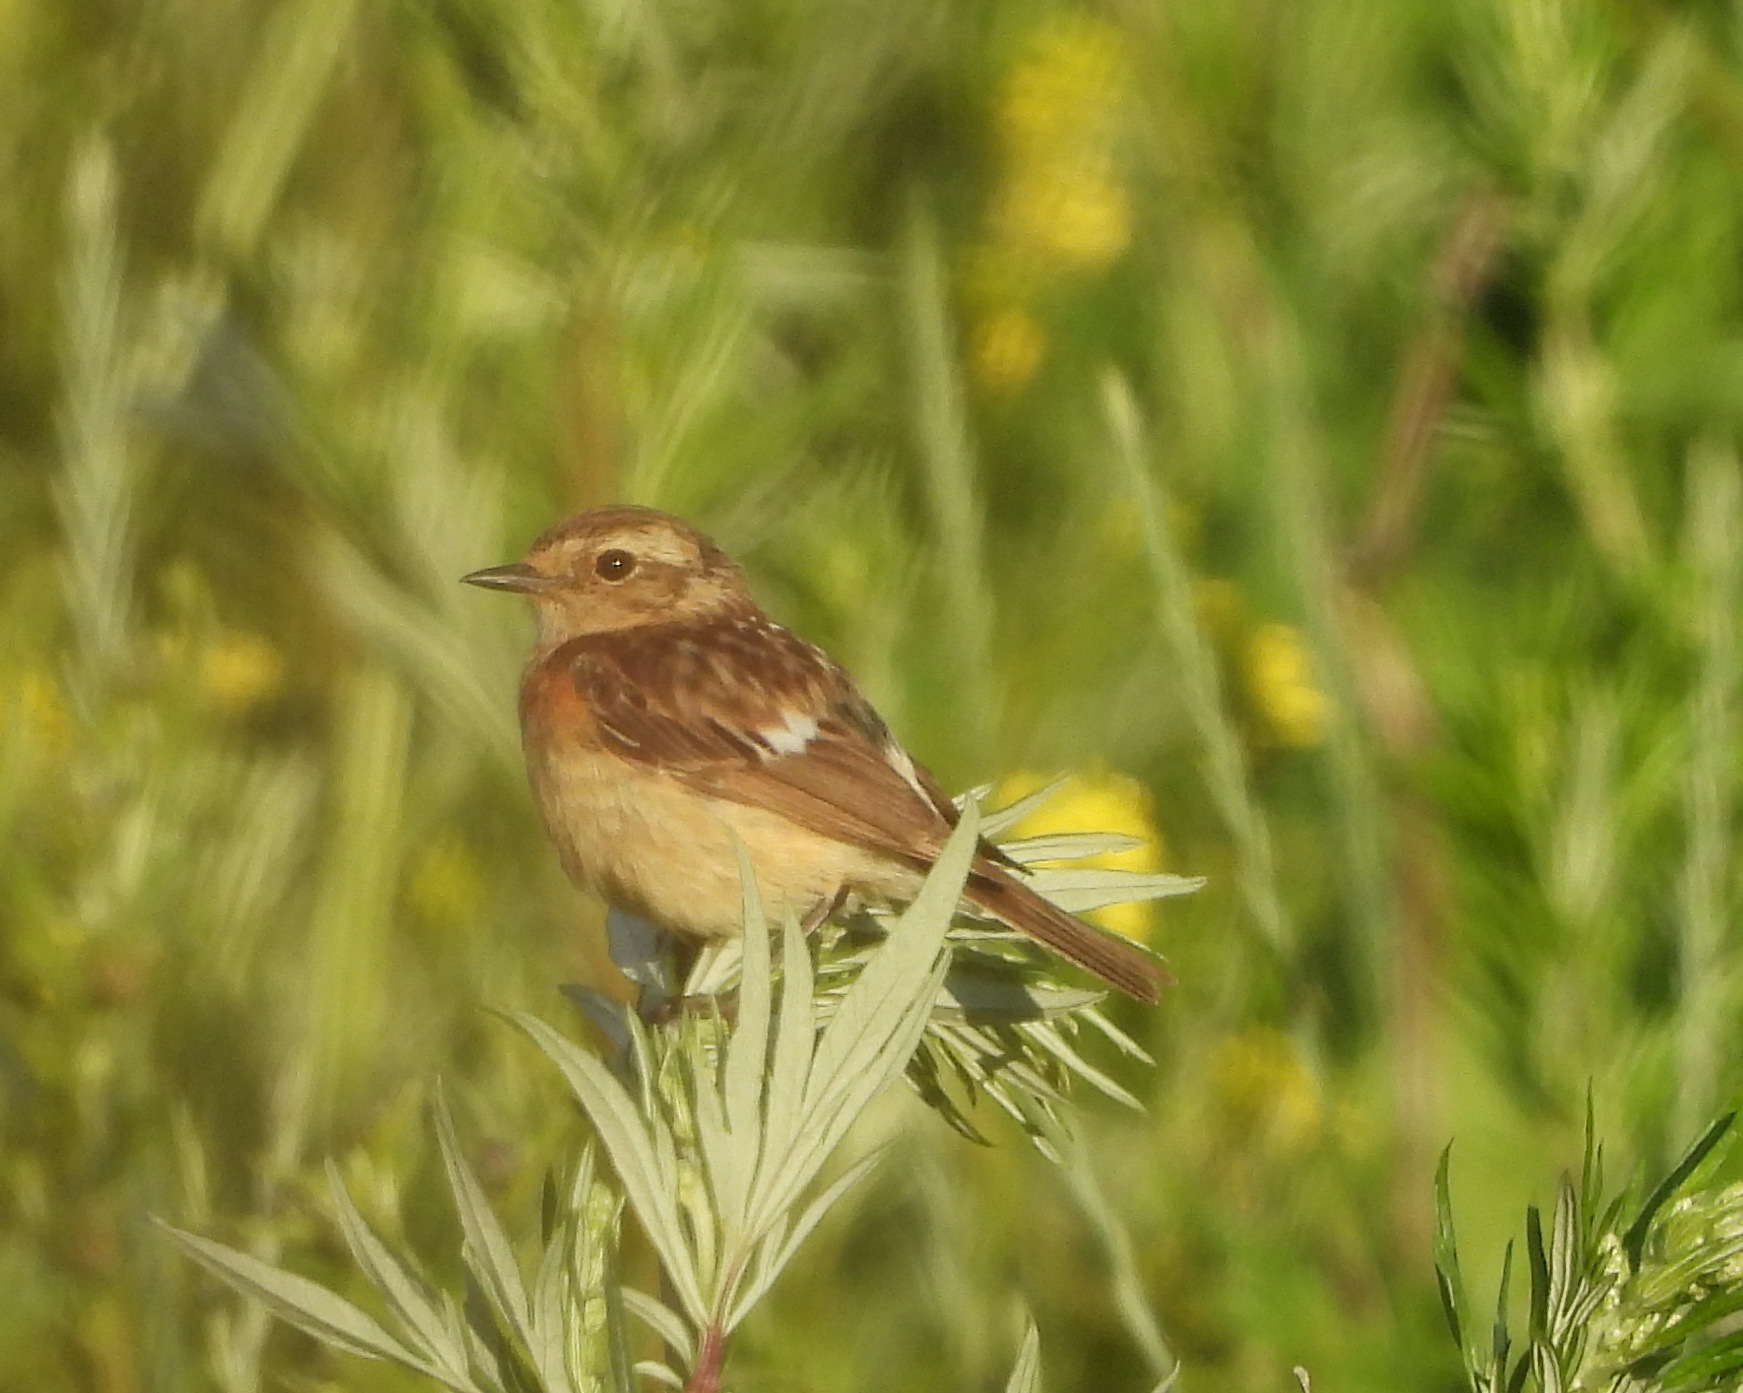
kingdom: Animalia
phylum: Chordata
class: Aves
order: Passeriformes
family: Muscicapidae
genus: Saxicola
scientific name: Saxicola maurus
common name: Siberian stonechat
